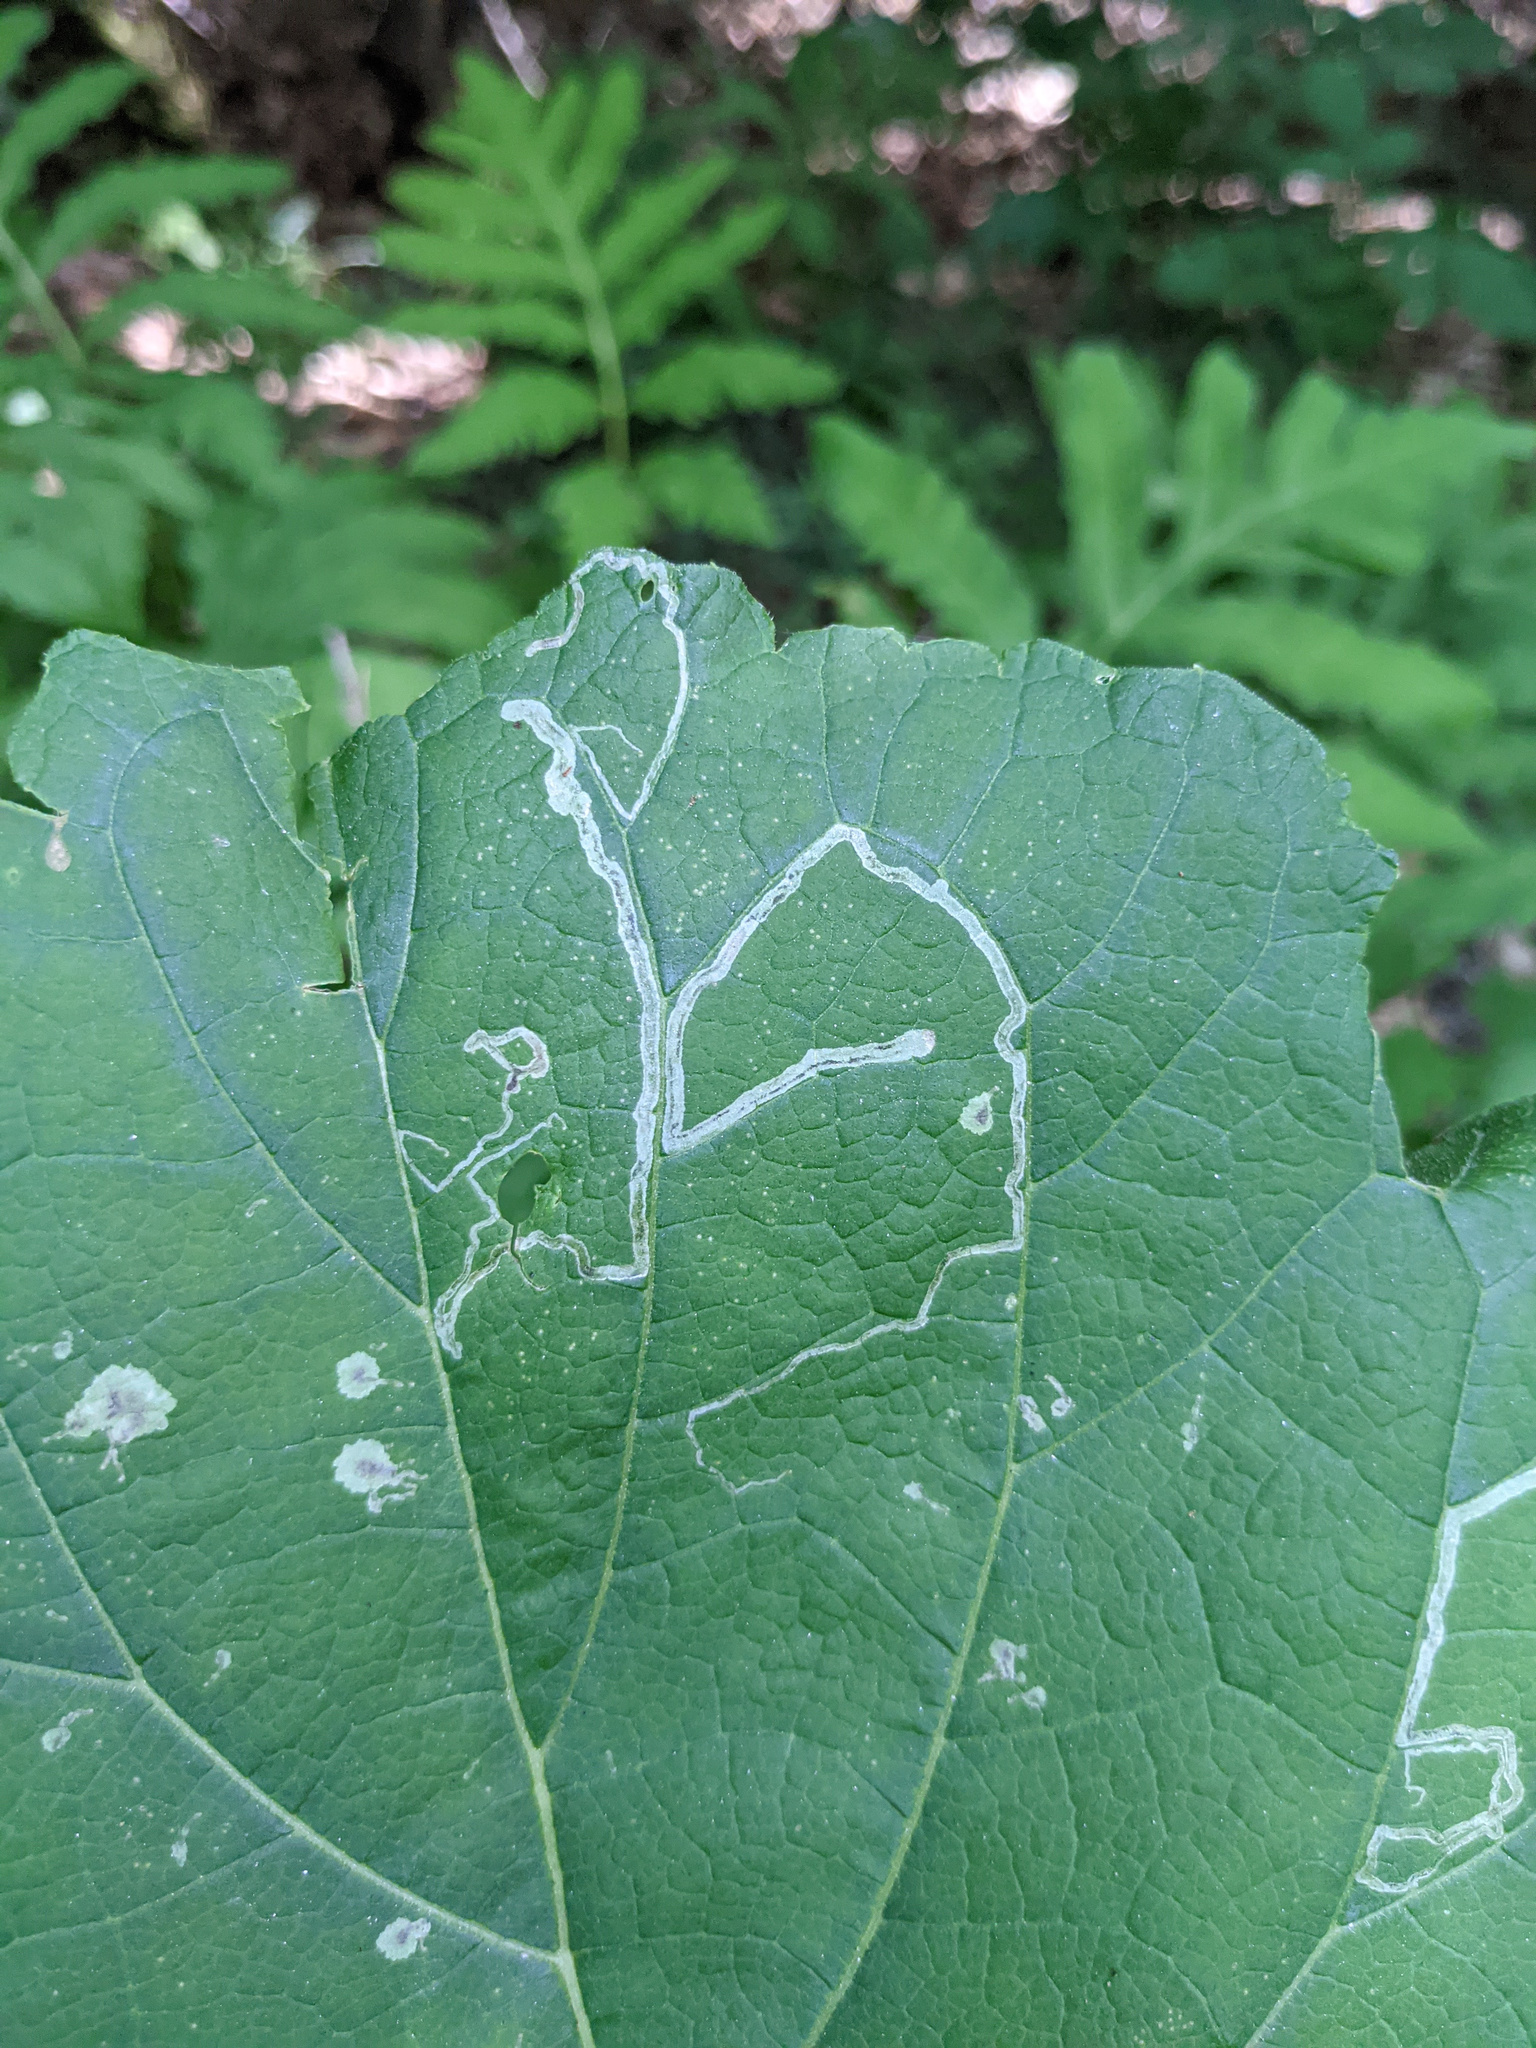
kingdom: Animalia
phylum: Arthropoda
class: Insecta
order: Diptera
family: Agromyzidae
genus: Liriomyza
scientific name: Liriomyza arctii
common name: Burdock leafminer
